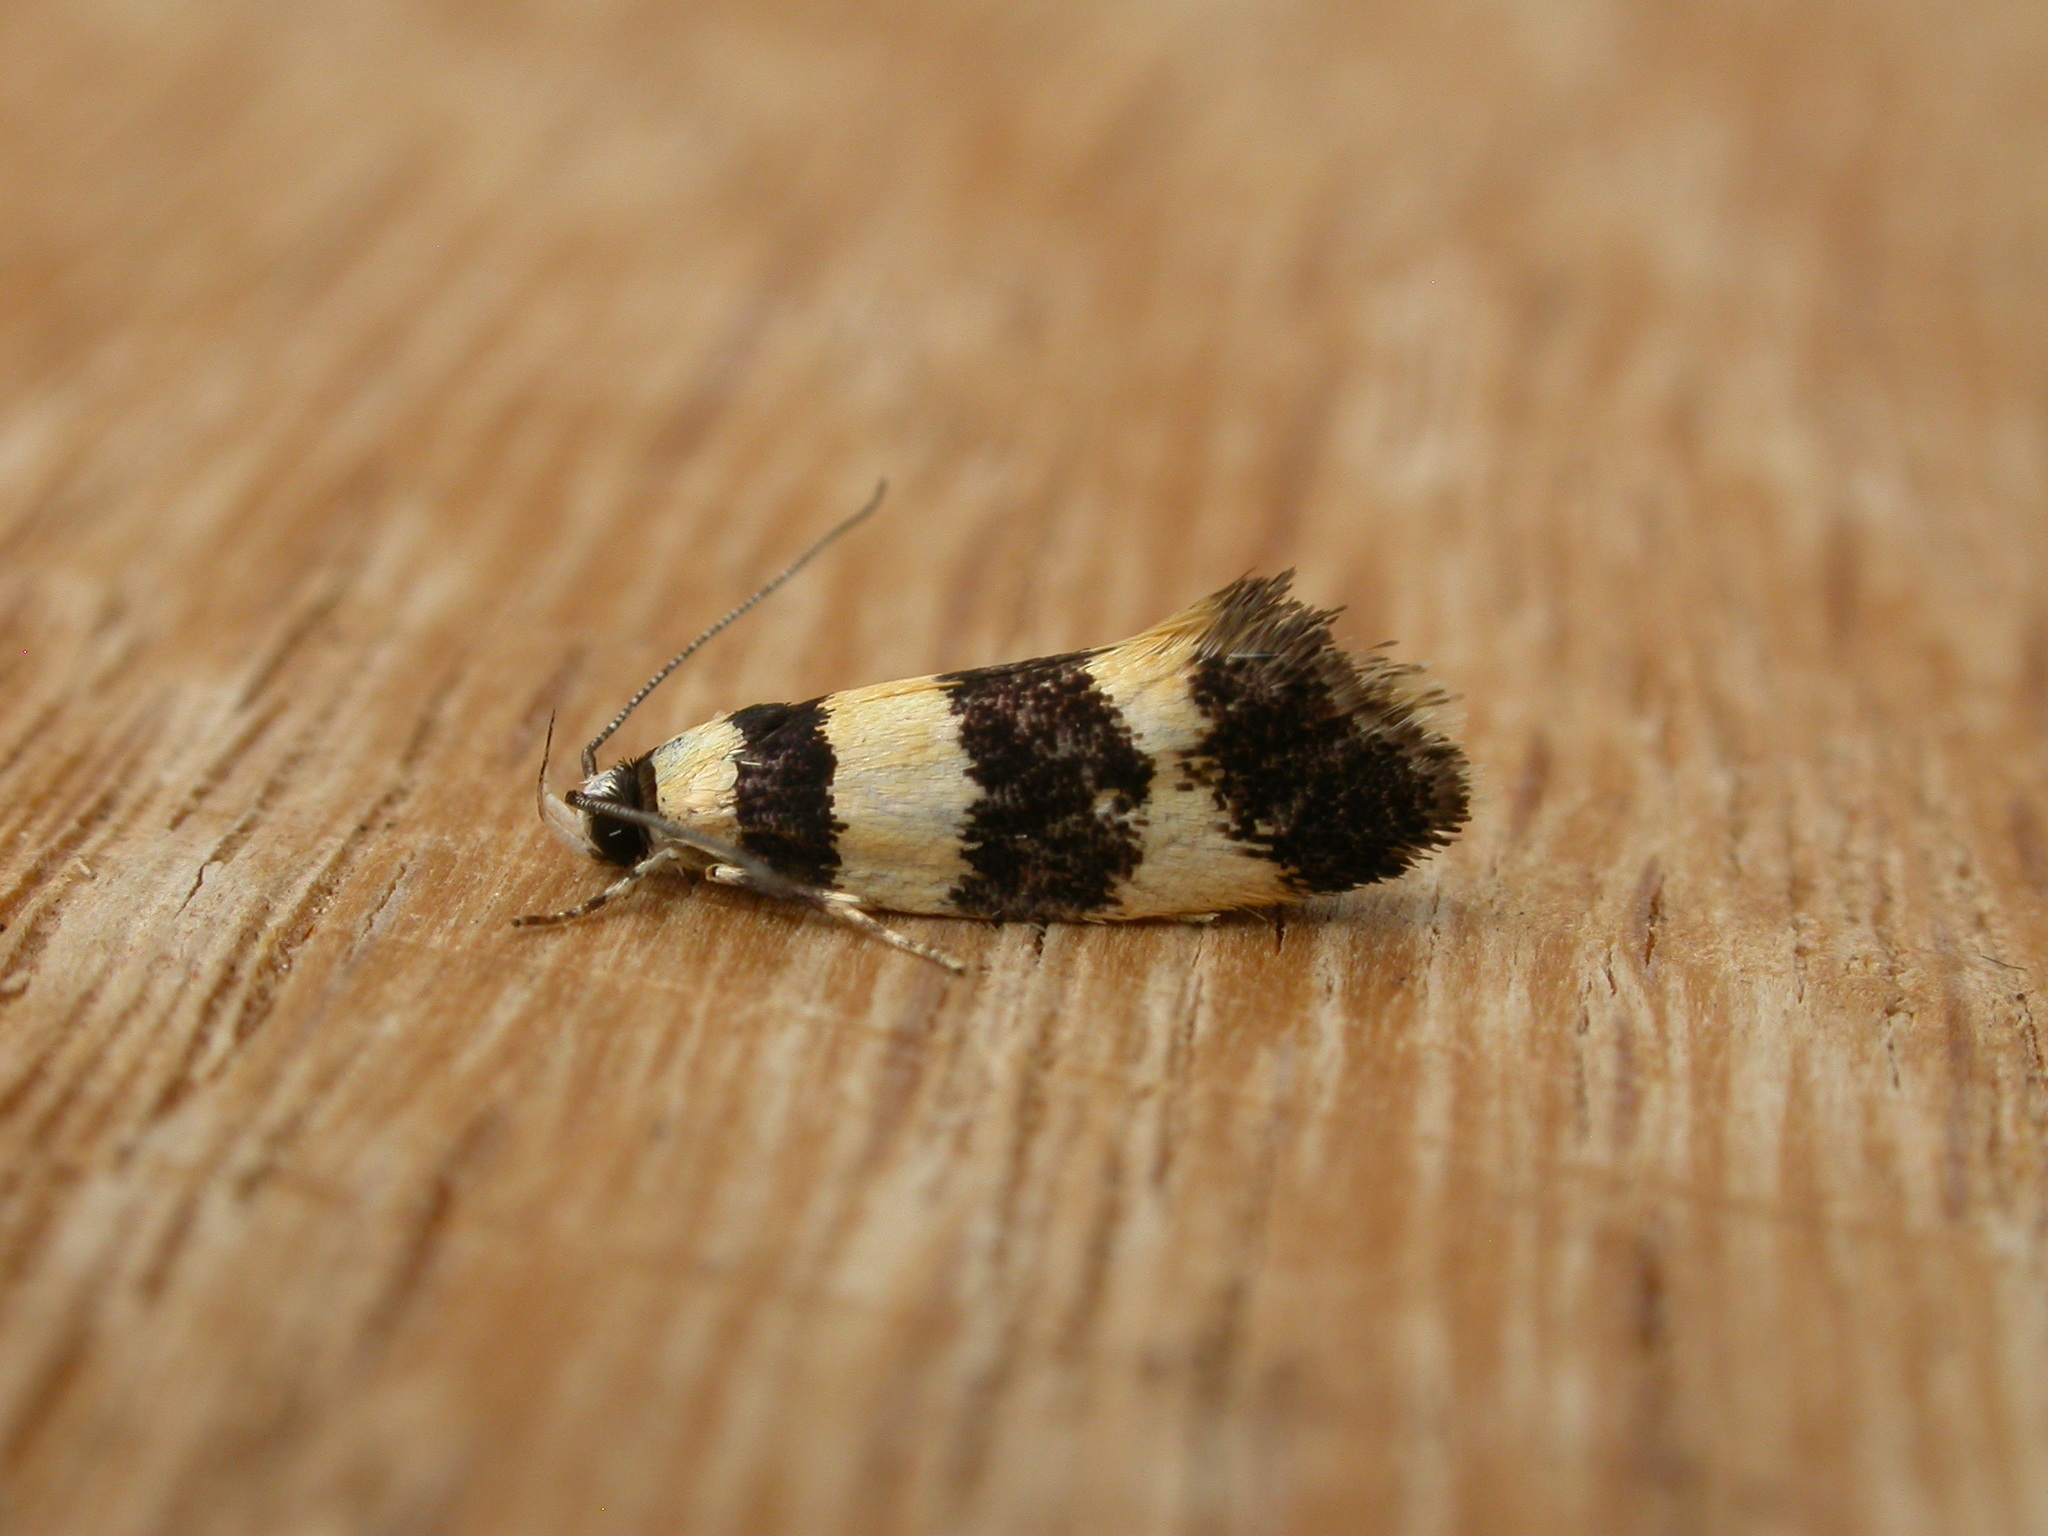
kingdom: Animalia
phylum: Arthropoda
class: Insecta
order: Lepidoptera
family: Xyloryctidae
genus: Telecrates
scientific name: Telecrates melanochrysa
